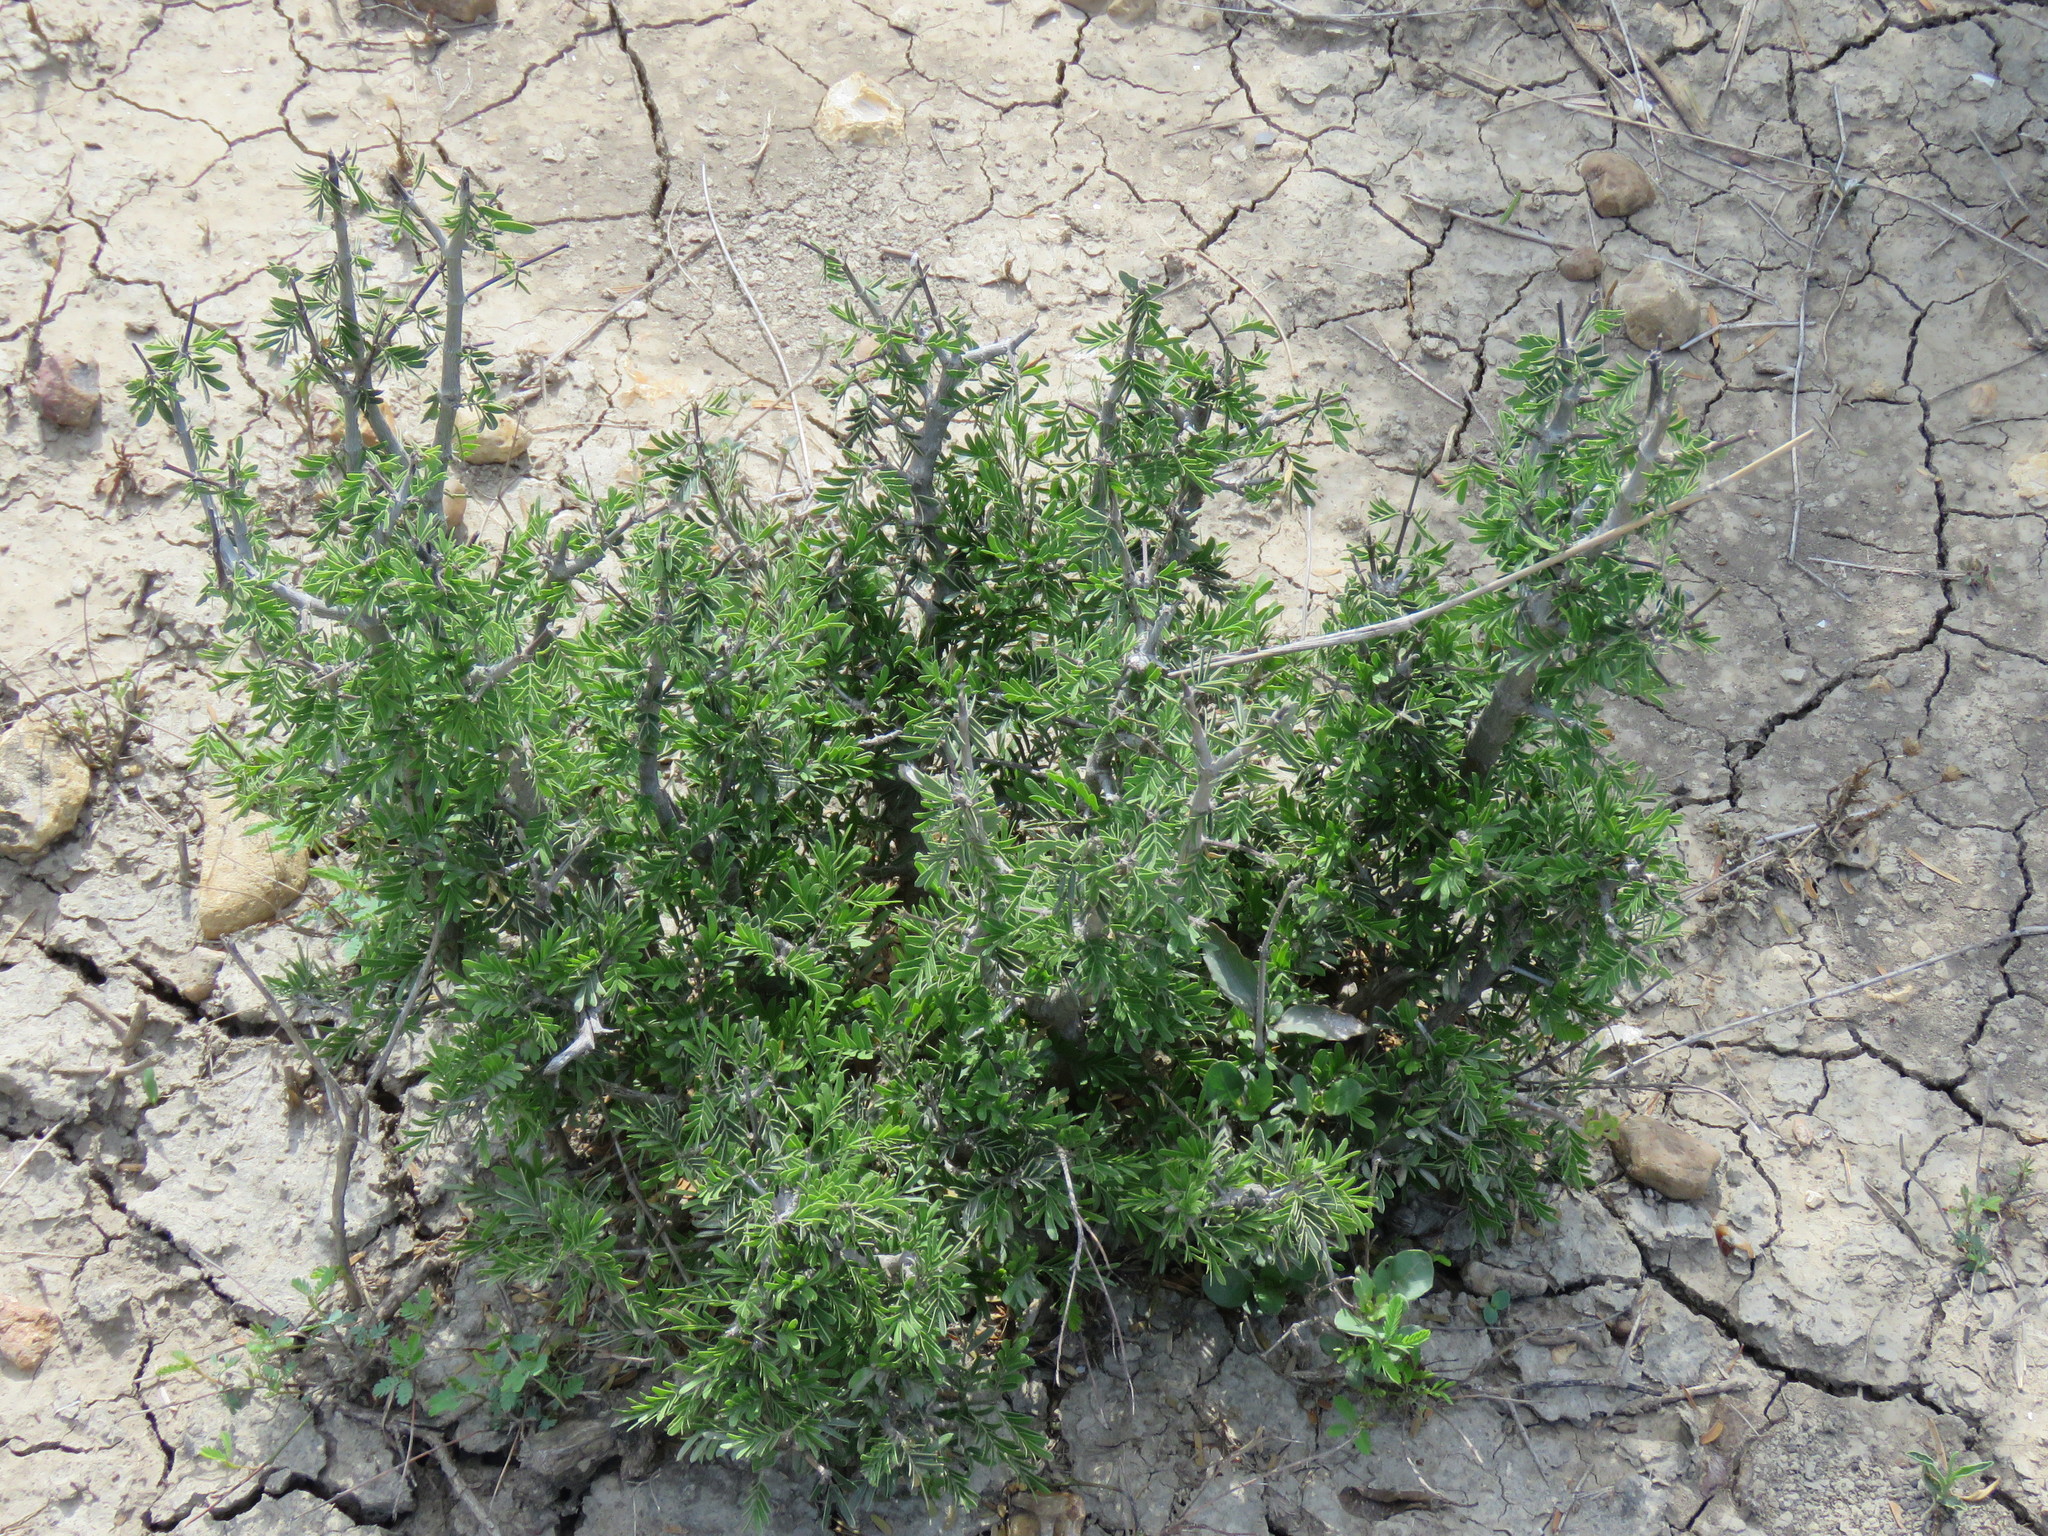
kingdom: Plantae
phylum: Tracheophyta
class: Magnoliopsida
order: Zygophyllales
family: Zygophyllaceae
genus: Porlieria
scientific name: Porlieria angustifolia
